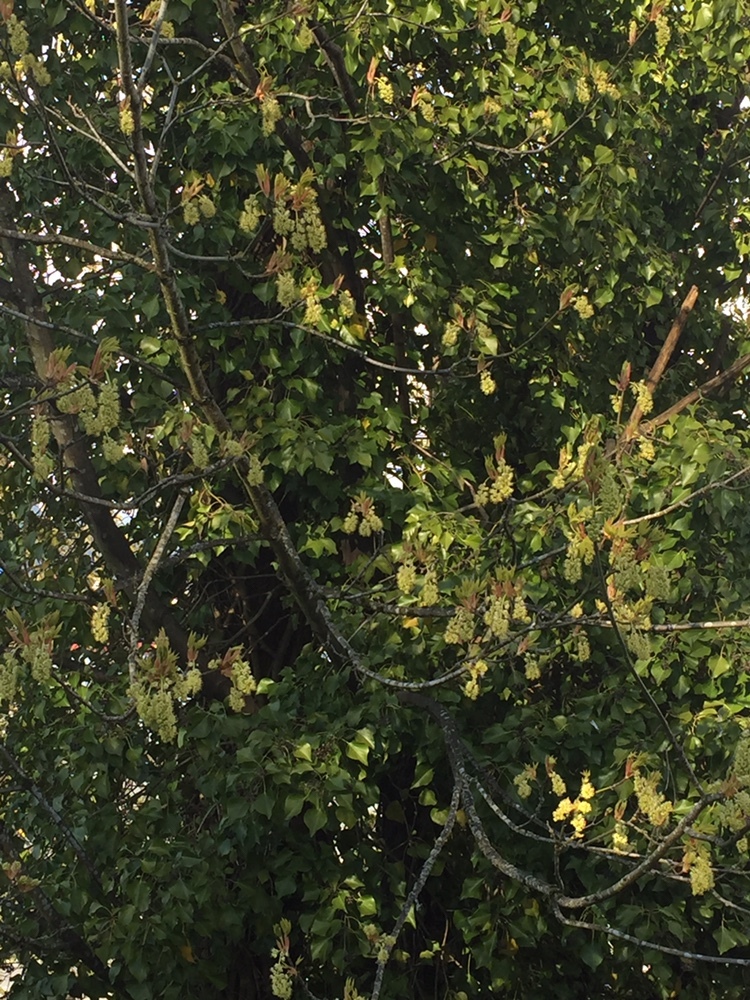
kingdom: Plantae
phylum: Tracheophyta
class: Magnoliopsida
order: Sapindales
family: Sapindaceae
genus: Acer
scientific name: Acer macrophyllum
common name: Oregon maple
